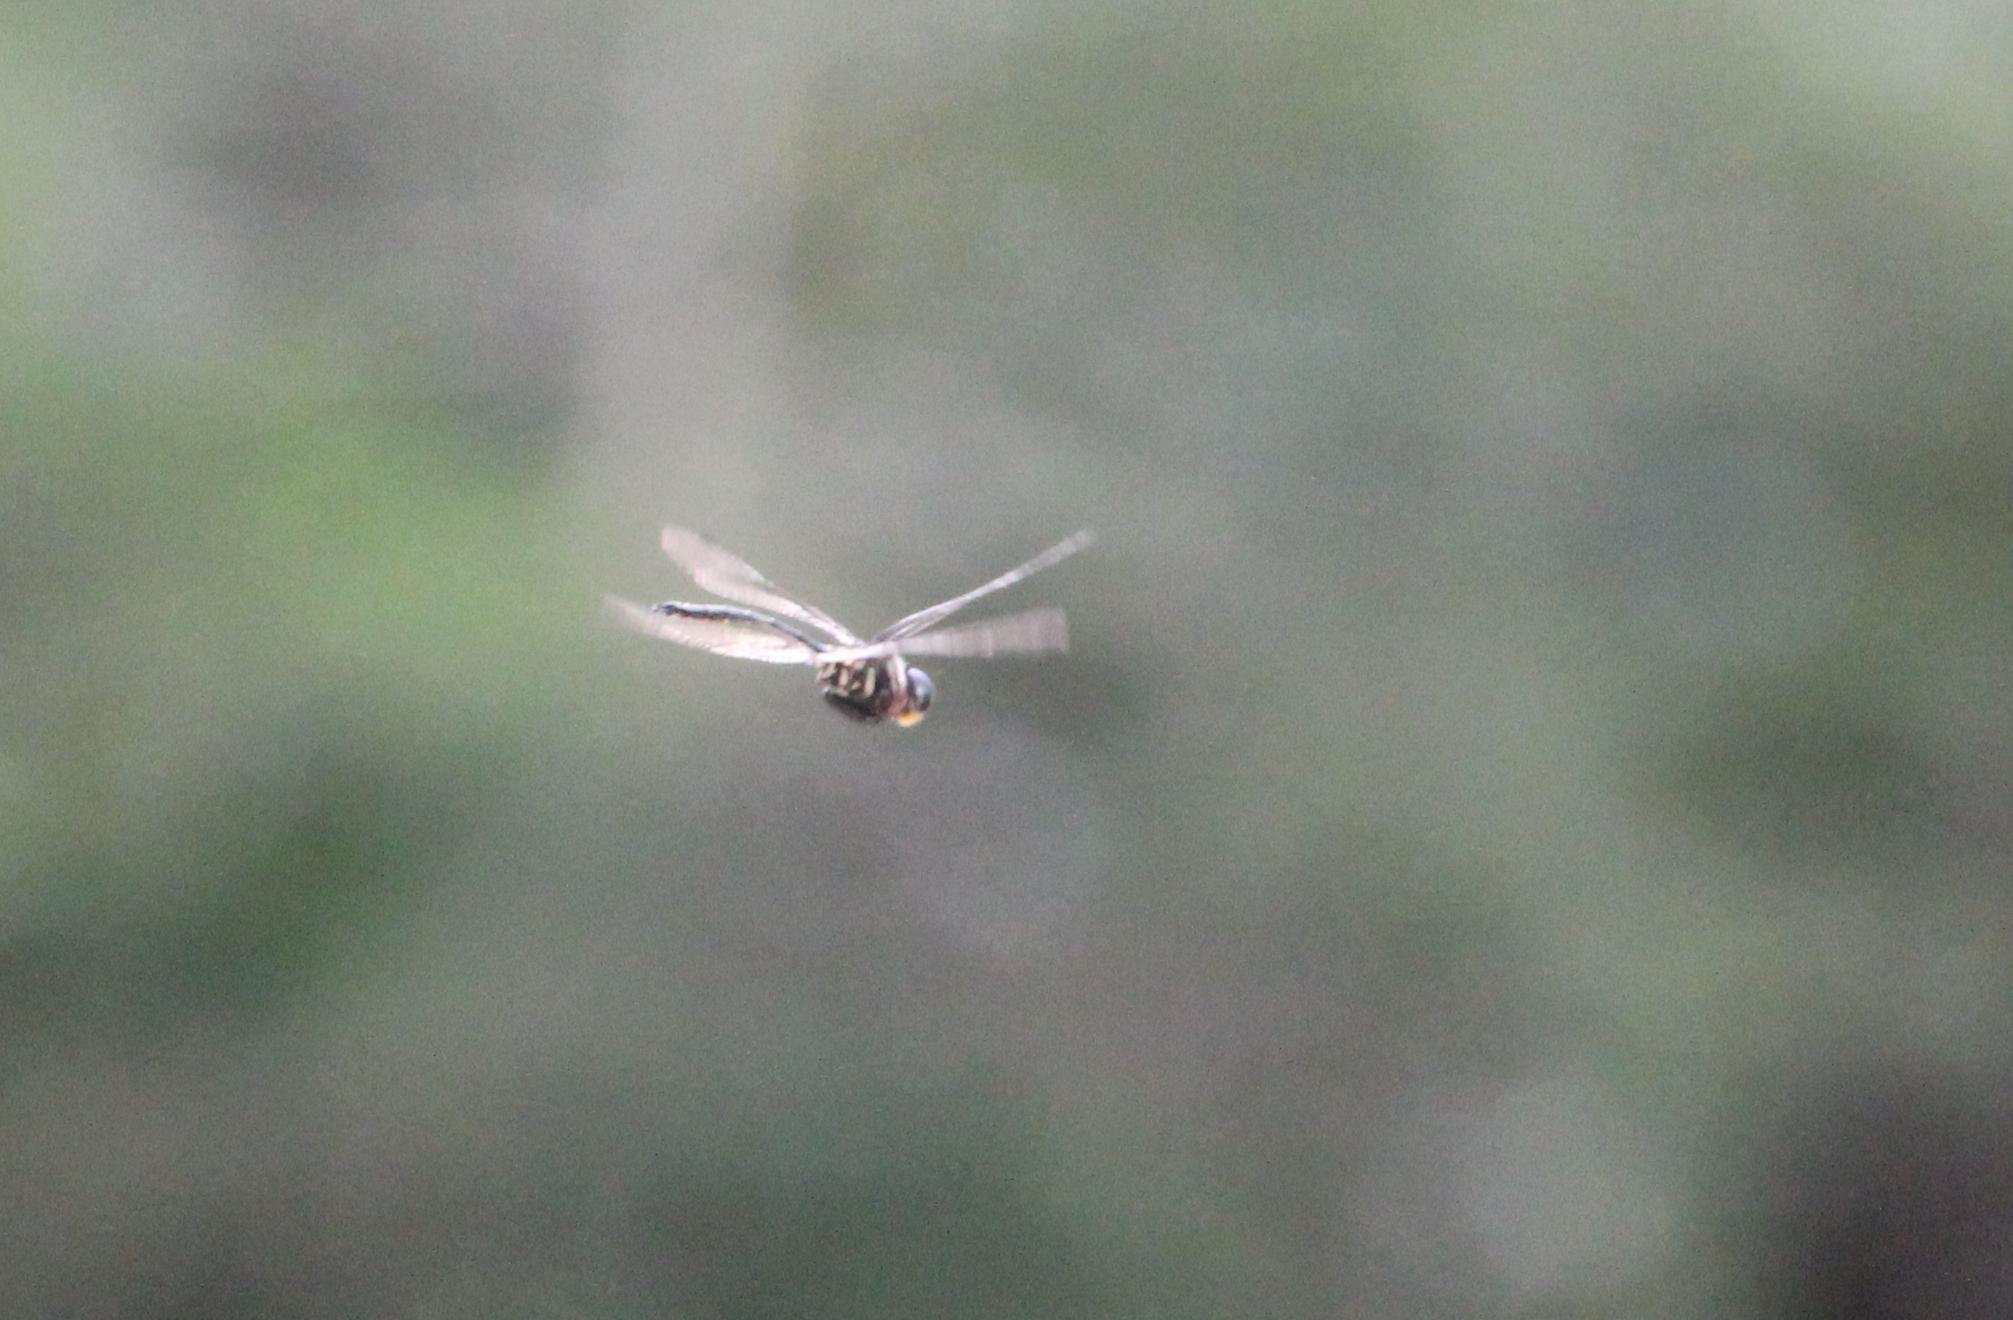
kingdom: Animalia
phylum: Arthropoda
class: Insecta
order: Odonata
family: Corduliidae
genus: Somatochlora
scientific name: Somatochlora provocans
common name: Treetop emerald
